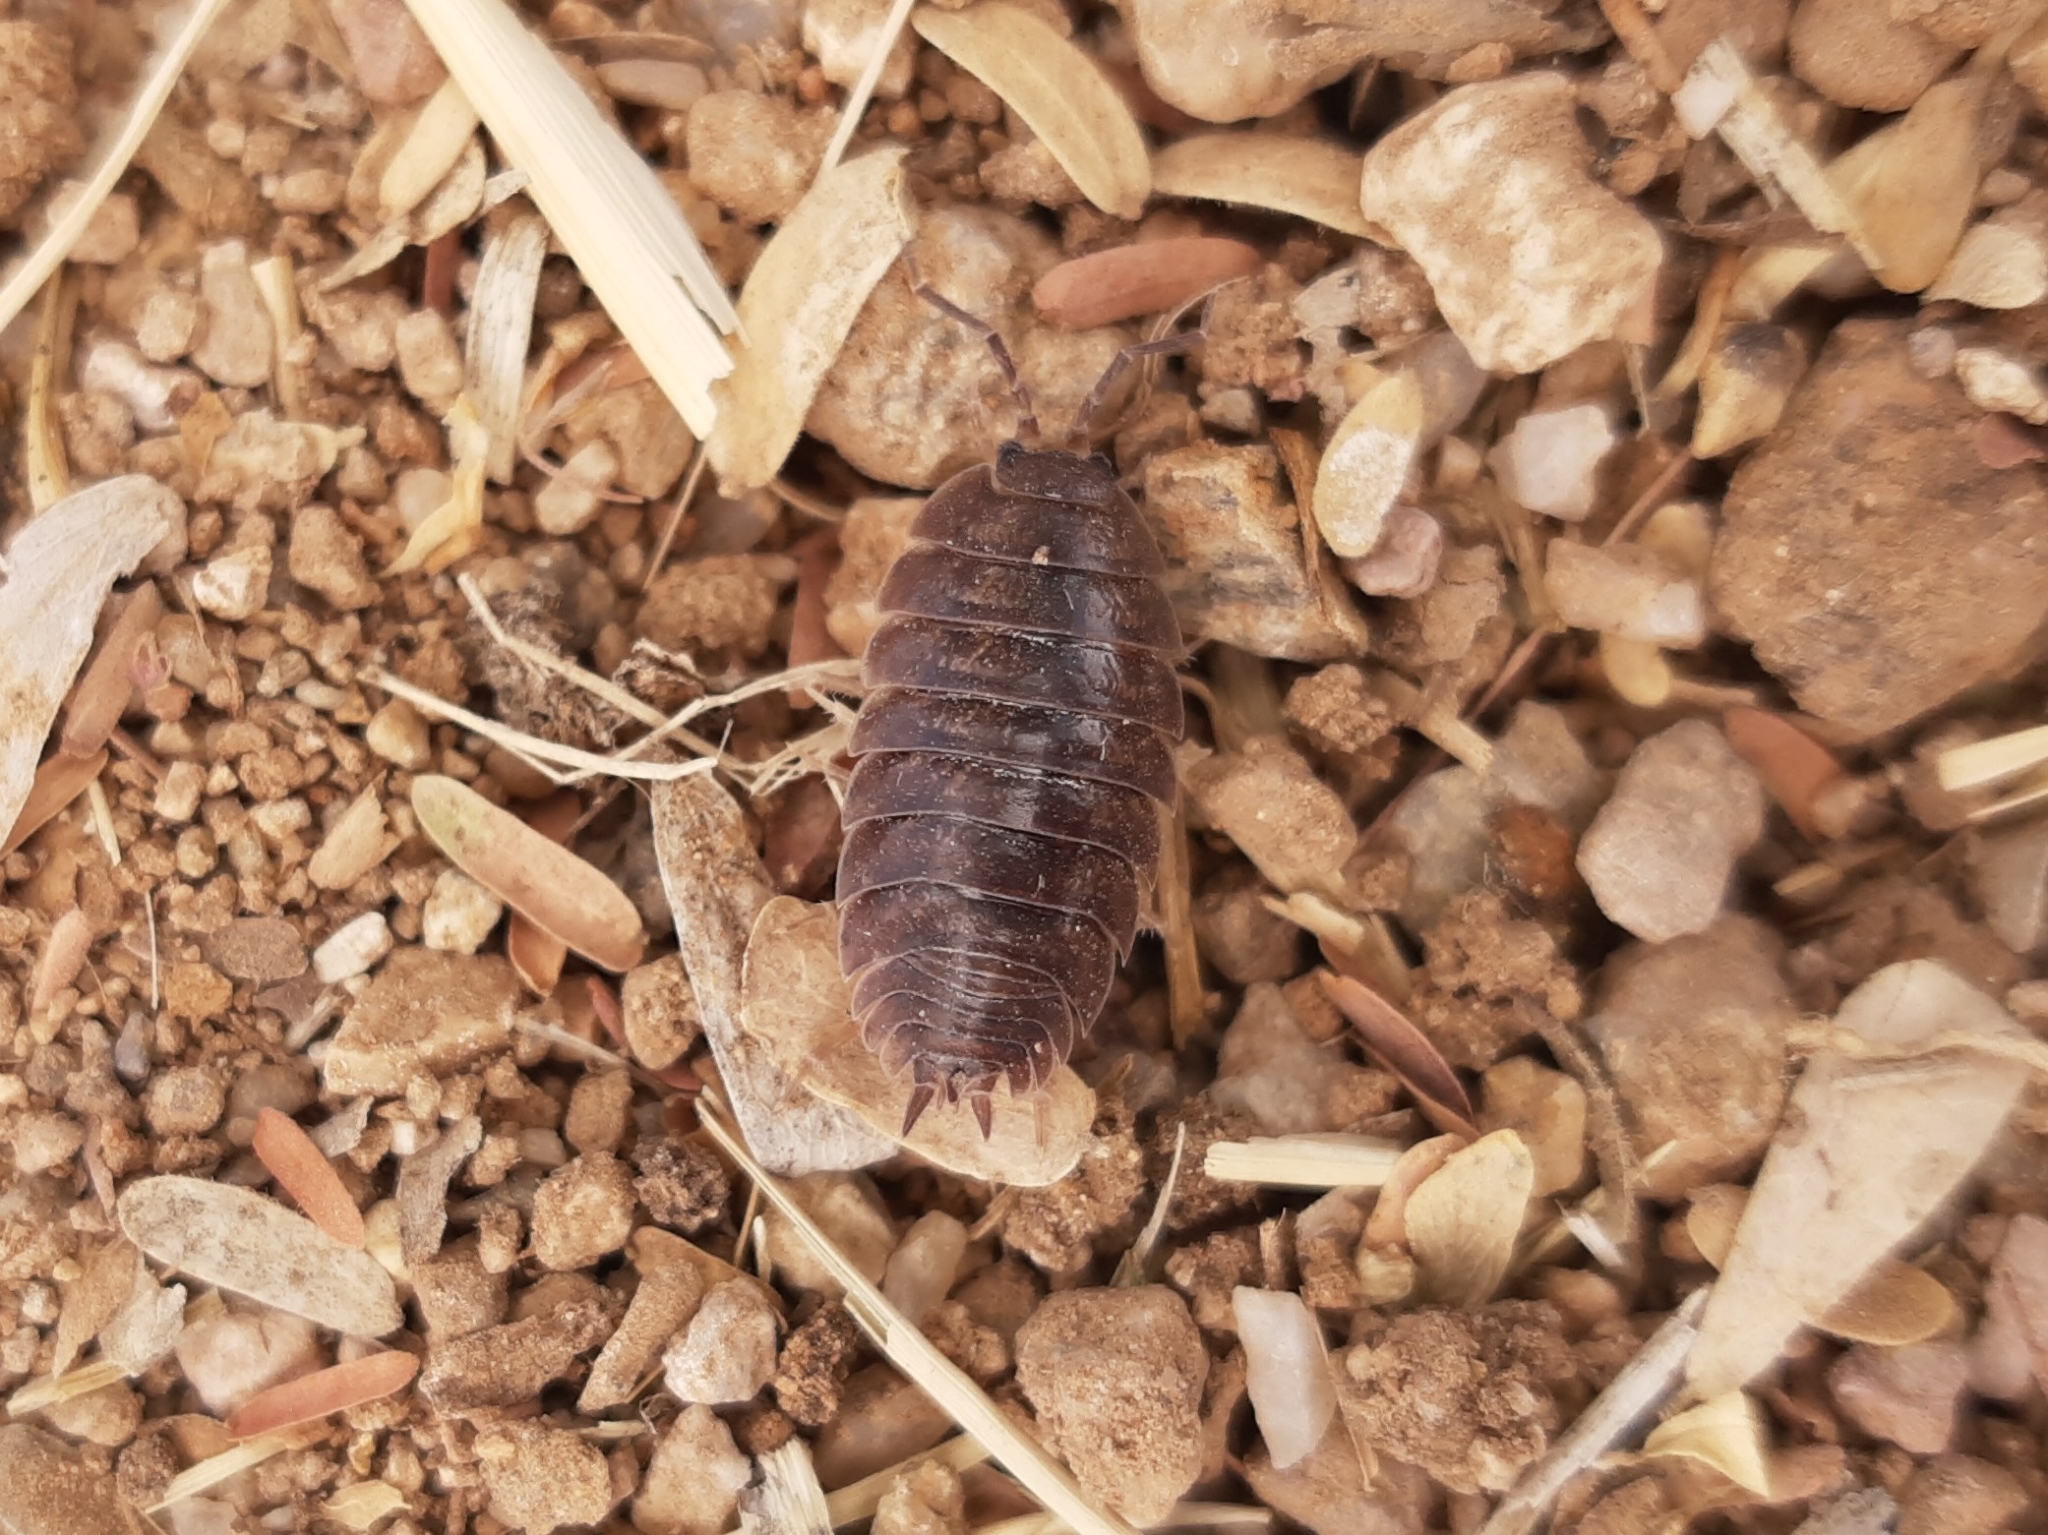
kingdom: Animalia
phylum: Arthropoda
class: Malacostraca
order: Isopoda
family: Porcellionidae
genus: Porcellio
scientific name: Porcellio laevis
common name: Swift woodlouse
